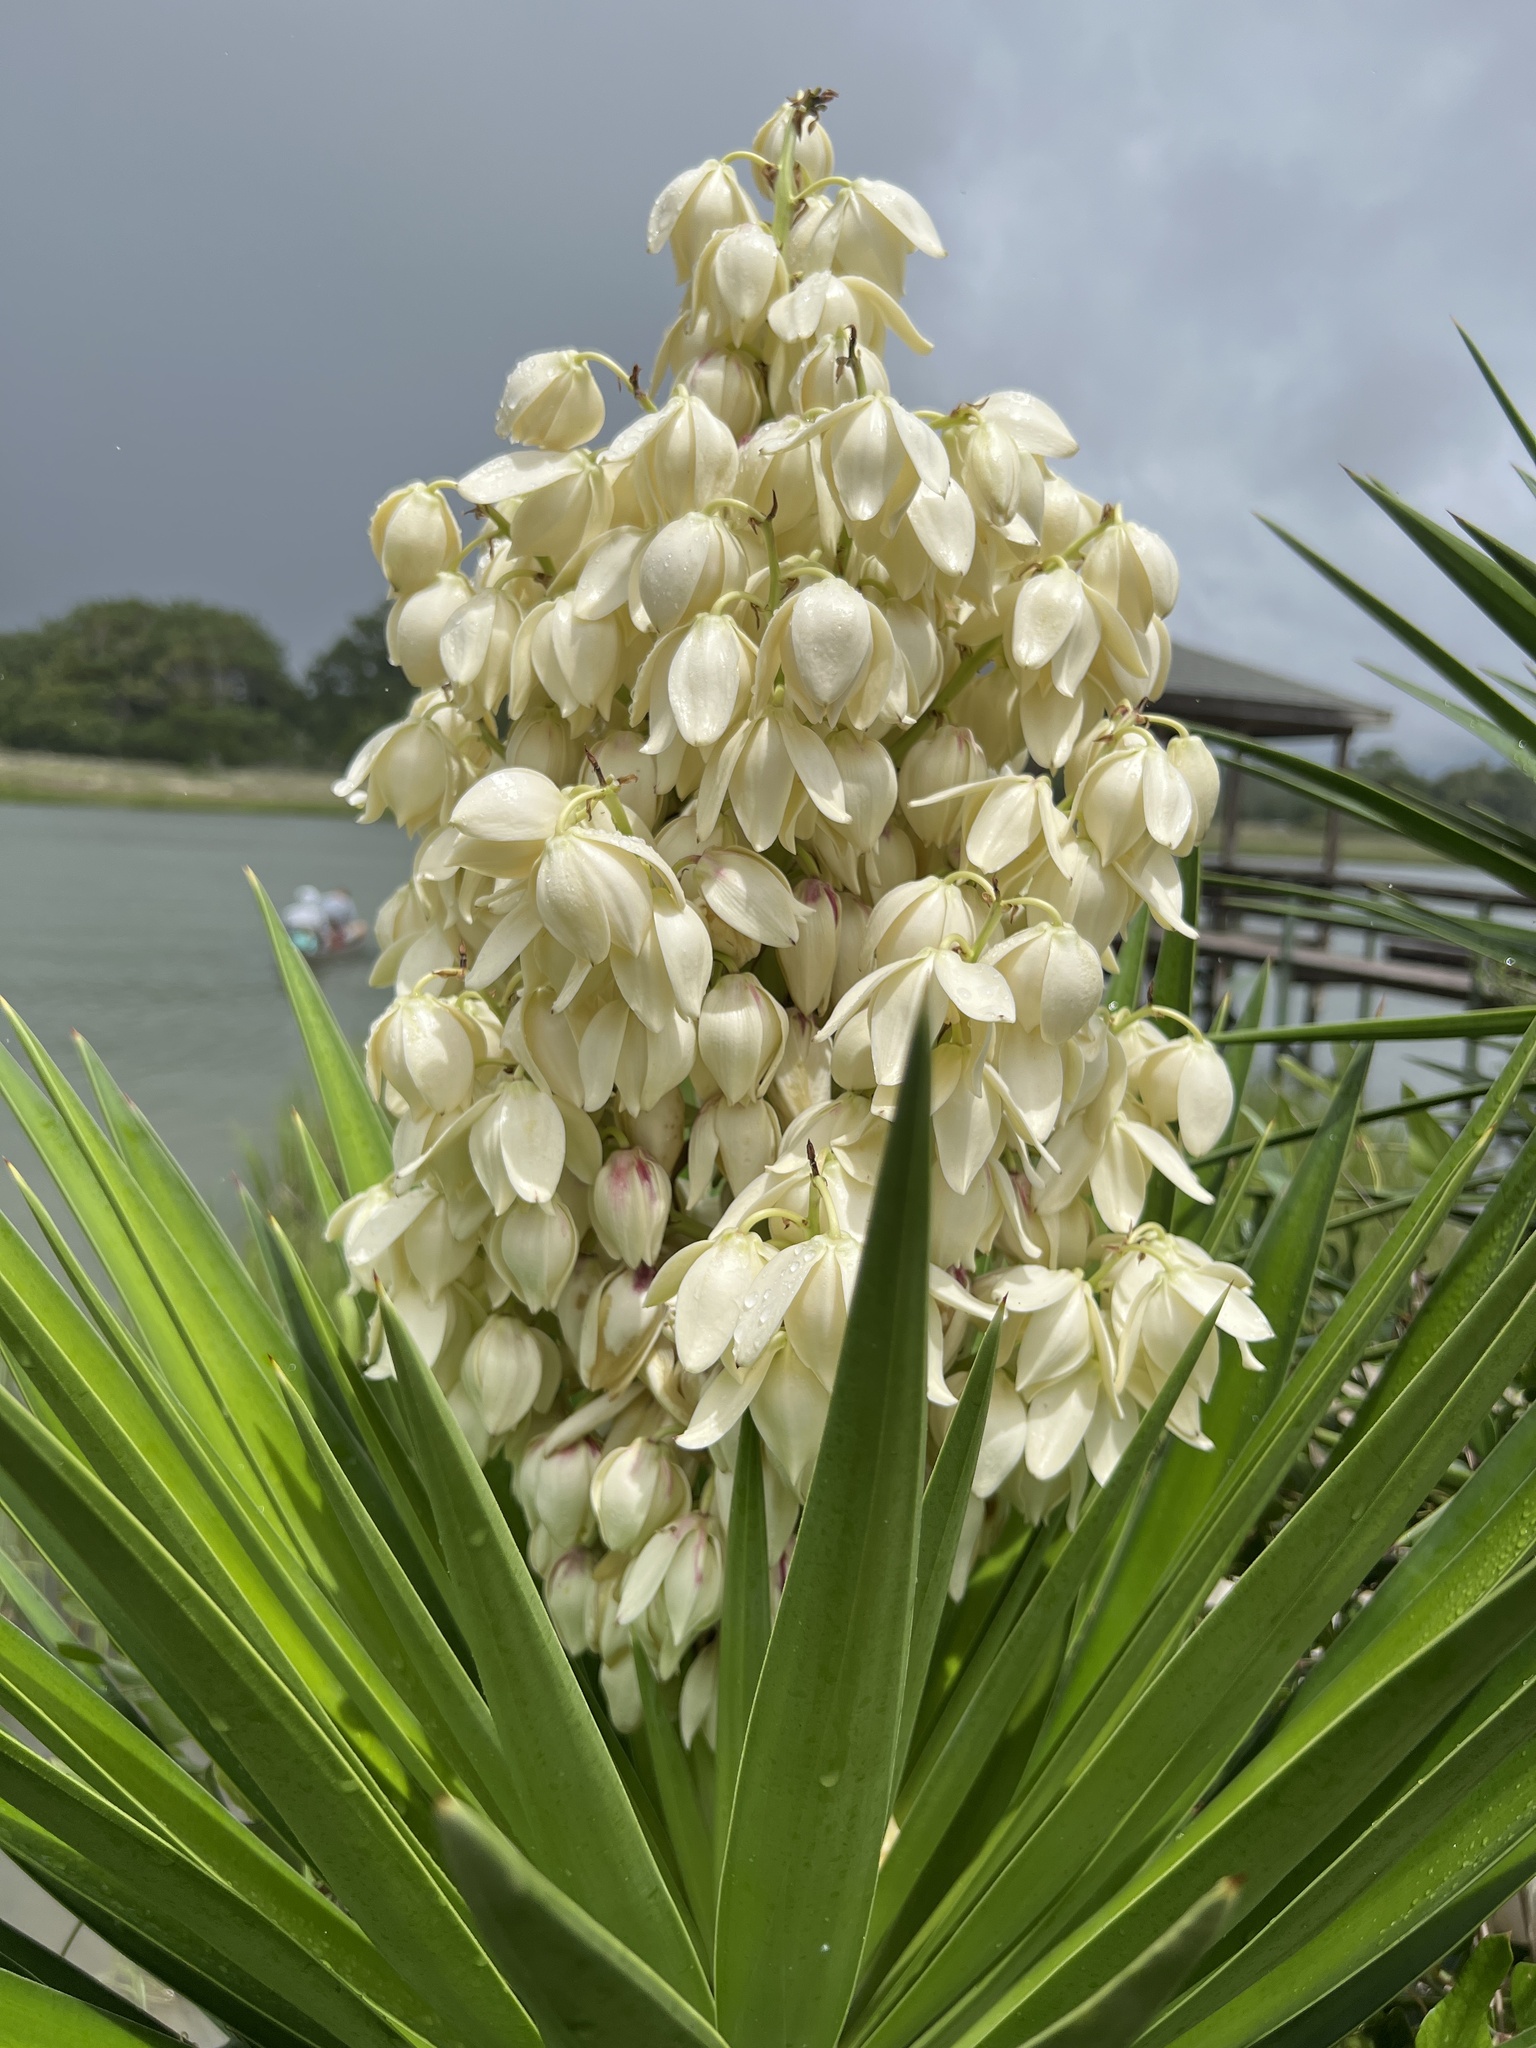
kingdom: Plantae
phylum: Tracheophyta
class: Liliopsida
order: Asparagales
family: Asparagaceae
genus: Yucca
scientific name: Yucca aloifolia
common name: Aloe yucca
